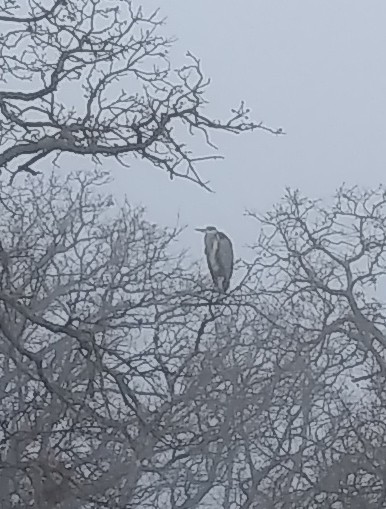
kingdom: Animalia
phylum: Chordata
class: Aves
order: Pelecaniformes
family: Ardeidae
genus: Ardea
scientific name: Ardea herodias
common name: Great blue heron
